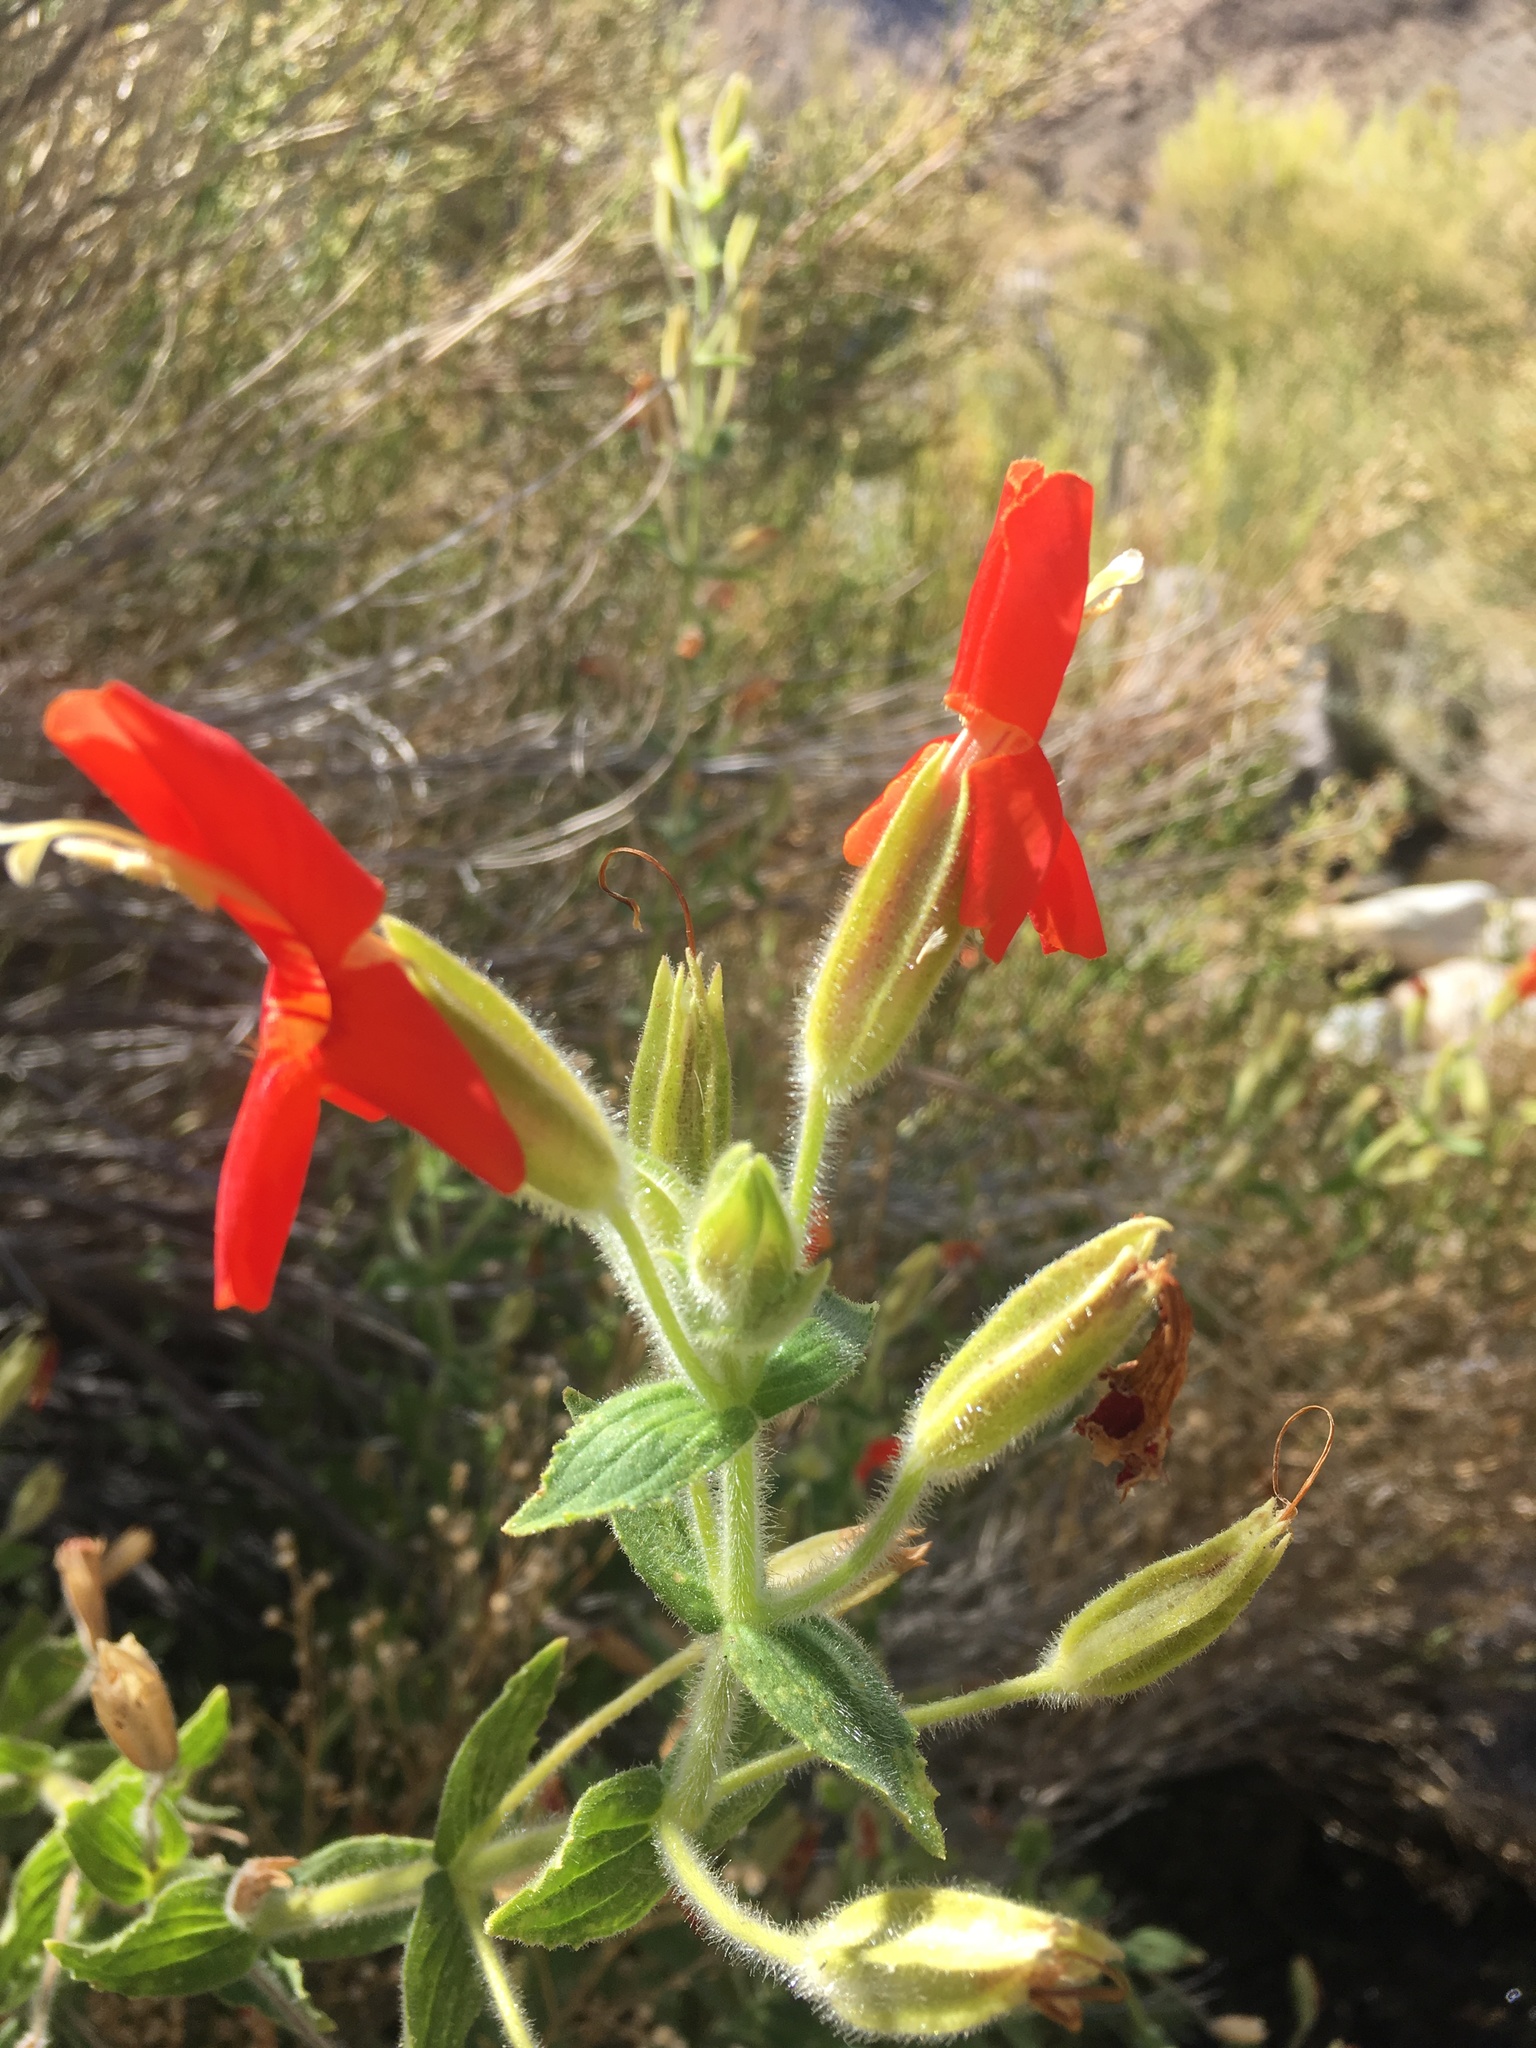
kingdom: Plantae
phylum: Tracheophyta
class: Magnoliopsida
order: Lamiales
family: Phrymaceae
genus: Erythranthe
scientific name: Erythranthe cardinalis
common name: Scarlet monkey-flower
